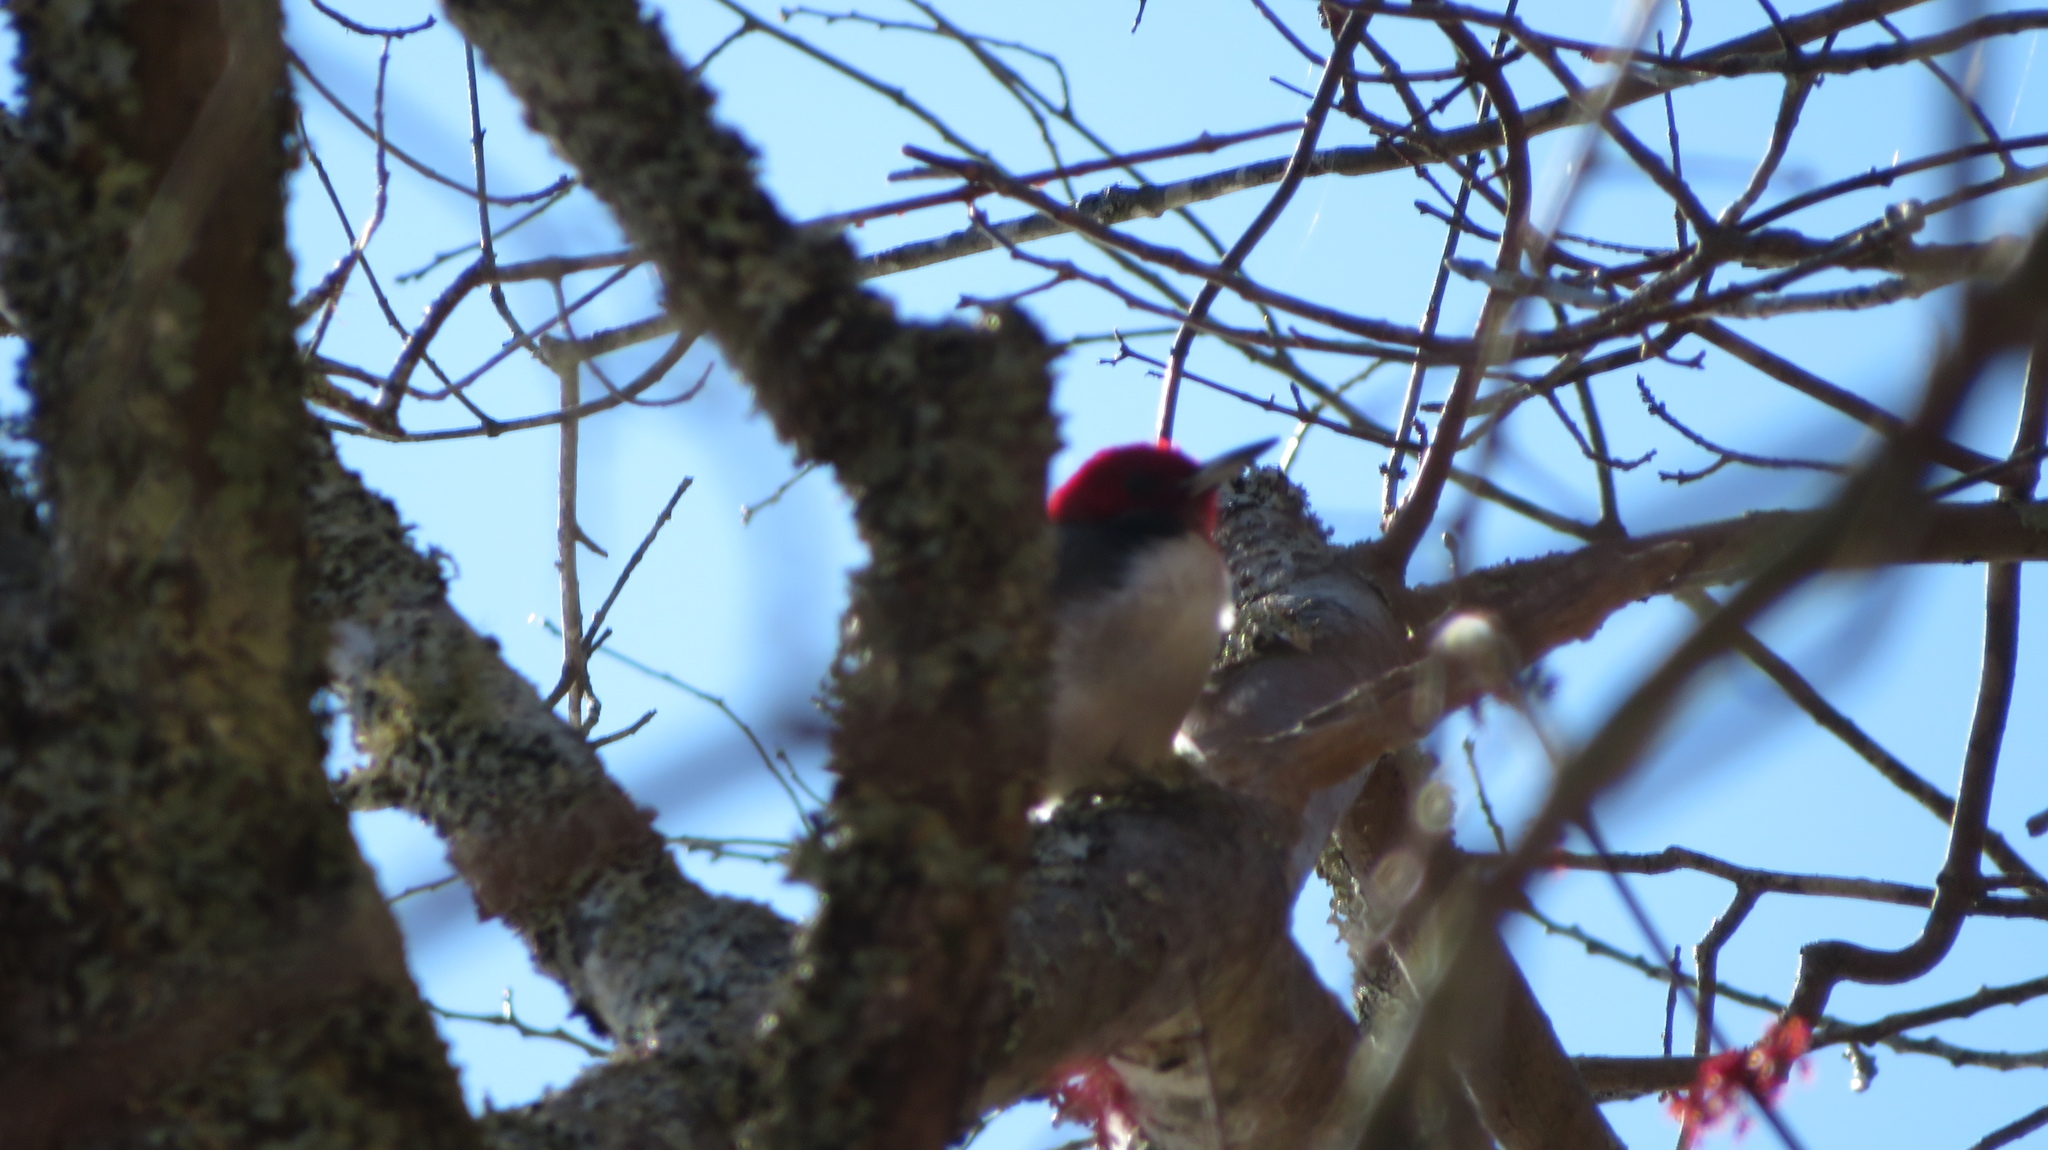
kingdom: Animalia
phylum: Chordata
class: Aves
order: Piciformes
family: Picidae
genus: Melanerpes
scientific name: Melanerpes erythrocephalus
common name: Red-headed woodpecker
